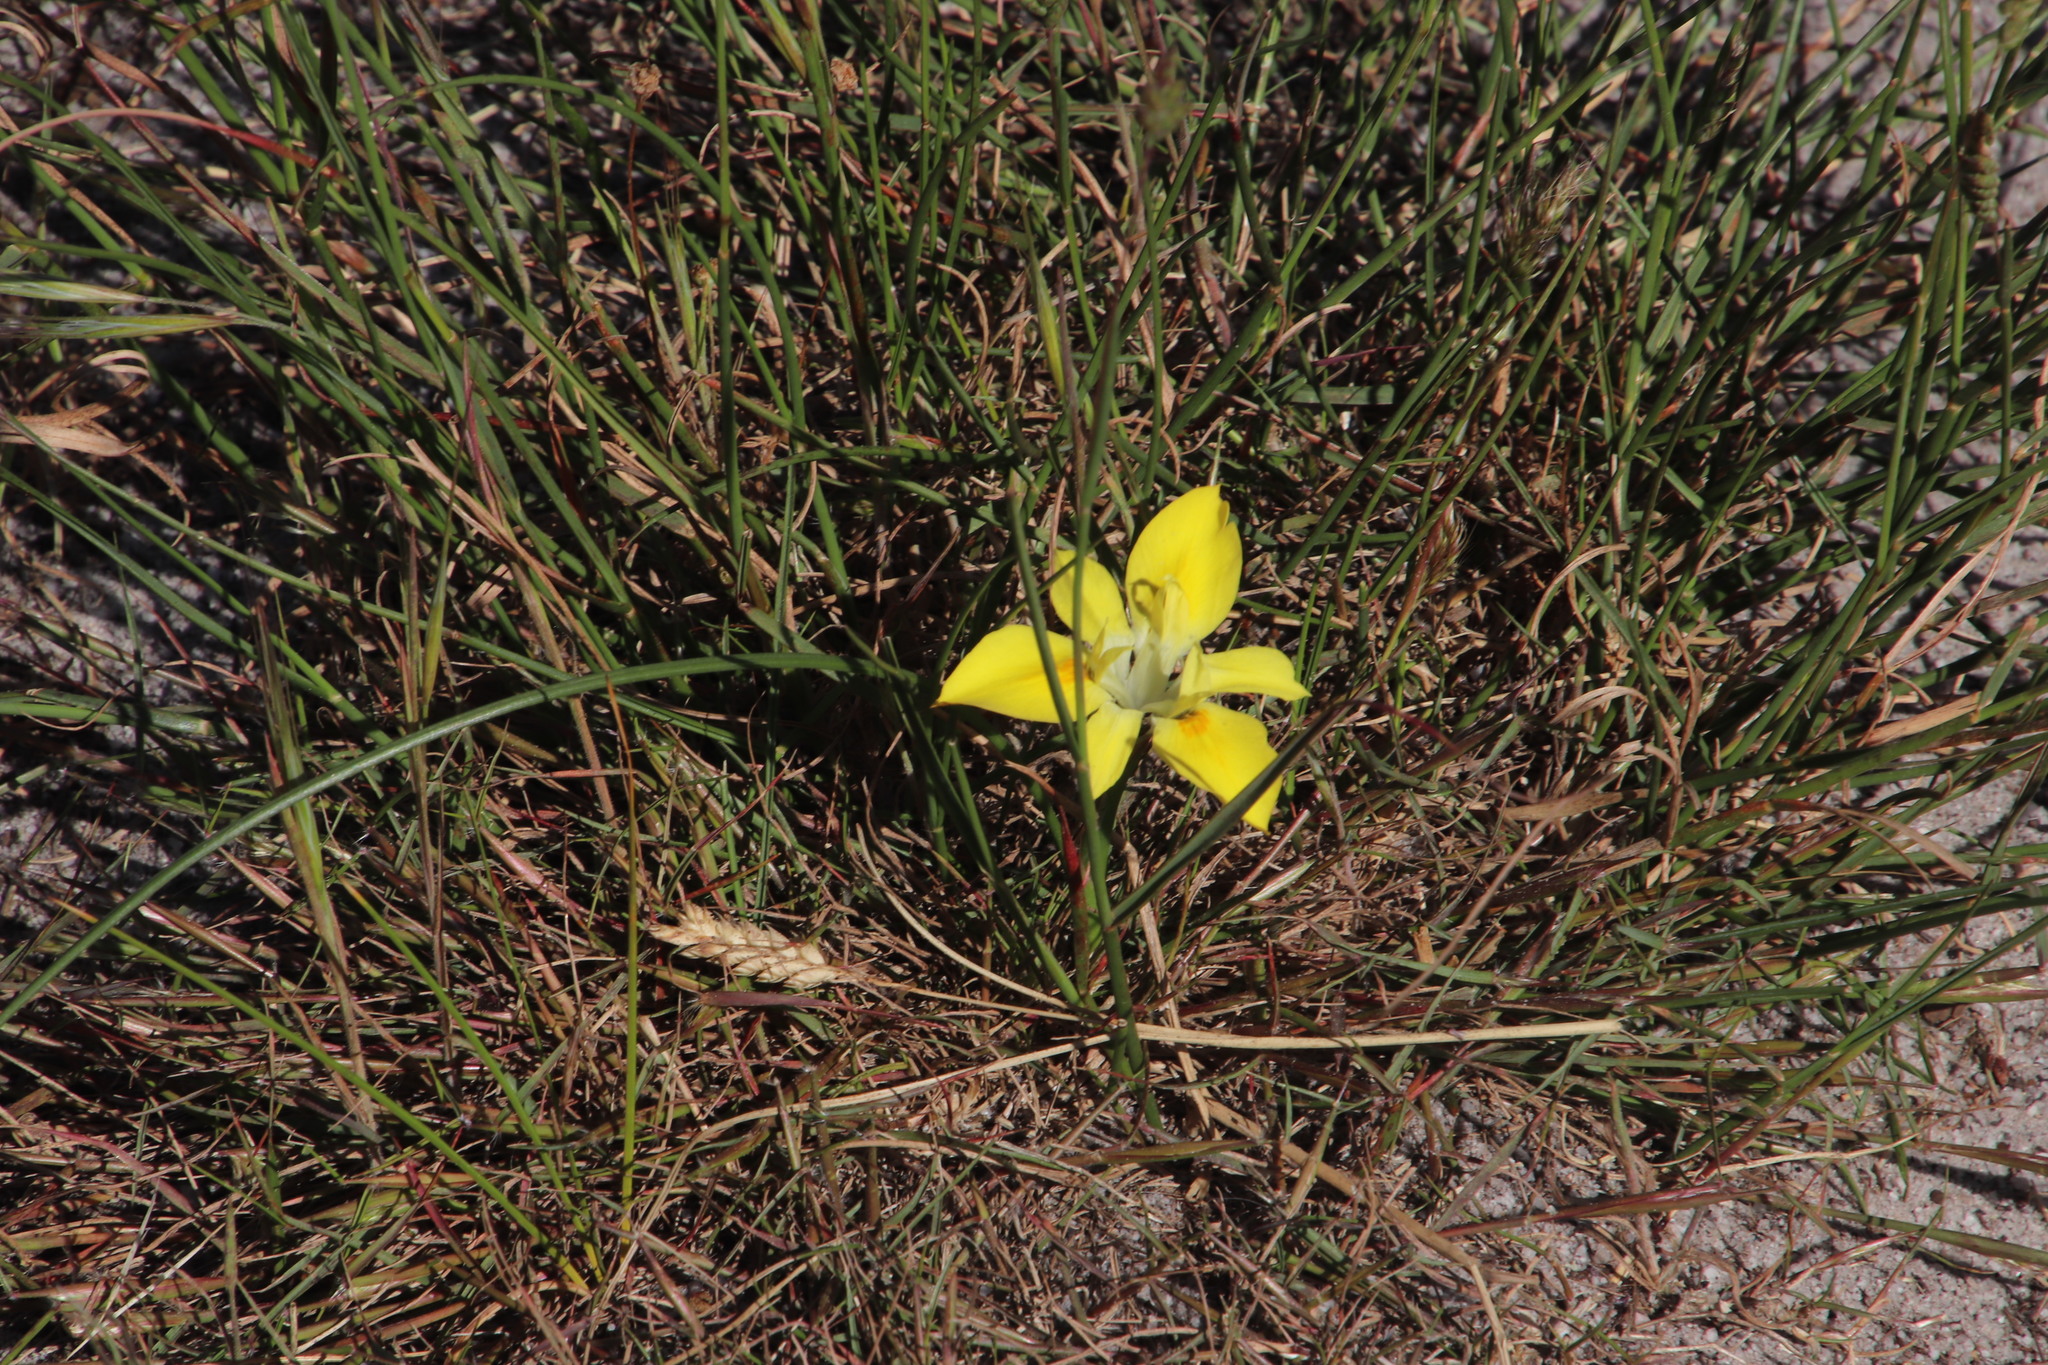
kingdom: Plantae
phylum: Tracheophyta
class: Liliopsida
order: Asparagales
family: Iridaceae
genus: Moraea
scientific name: Moraea fugax
